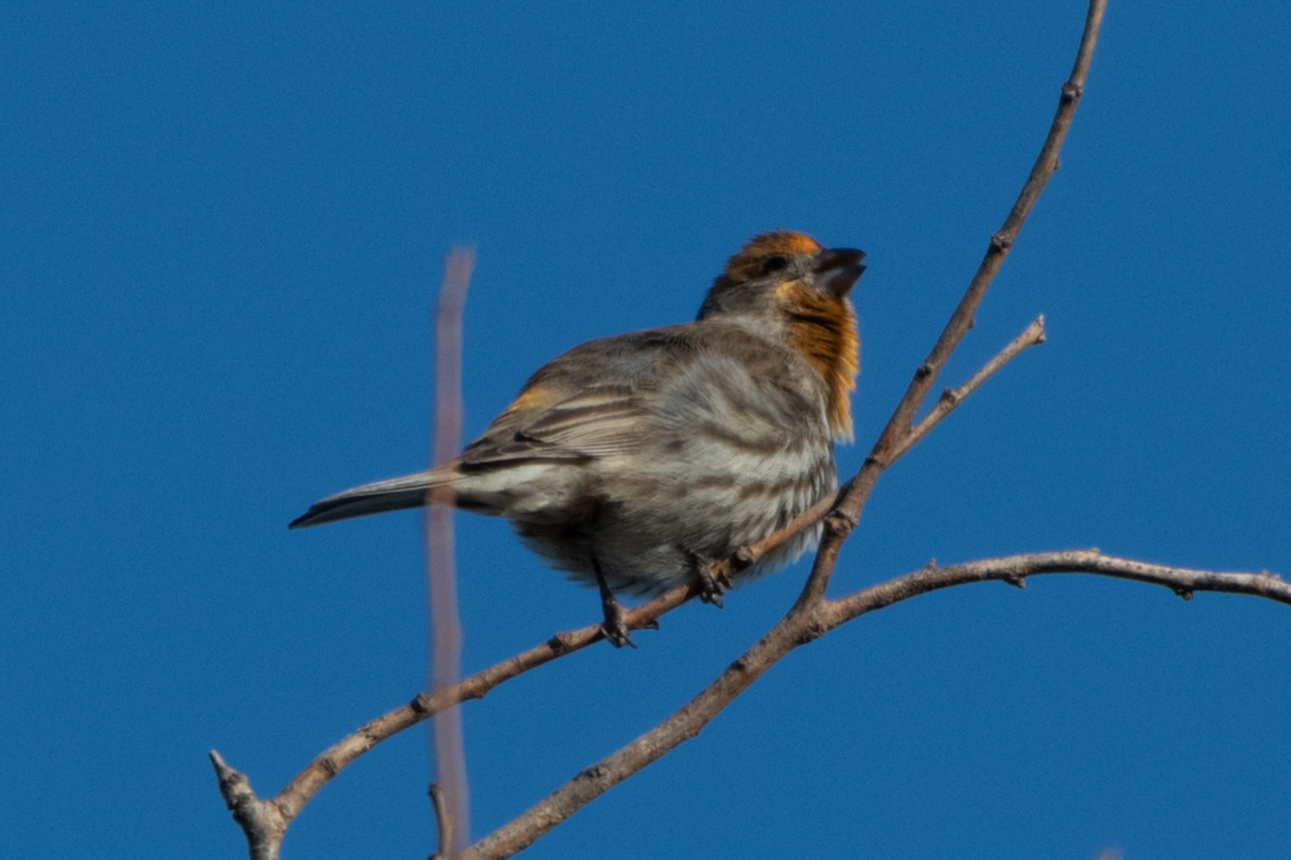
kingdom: Animalia
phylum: Chordata
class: Aves
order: Passeriformes
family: Fringillidae
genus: Haemorhous
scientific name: Haemorhous mexicanus
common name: House finch
